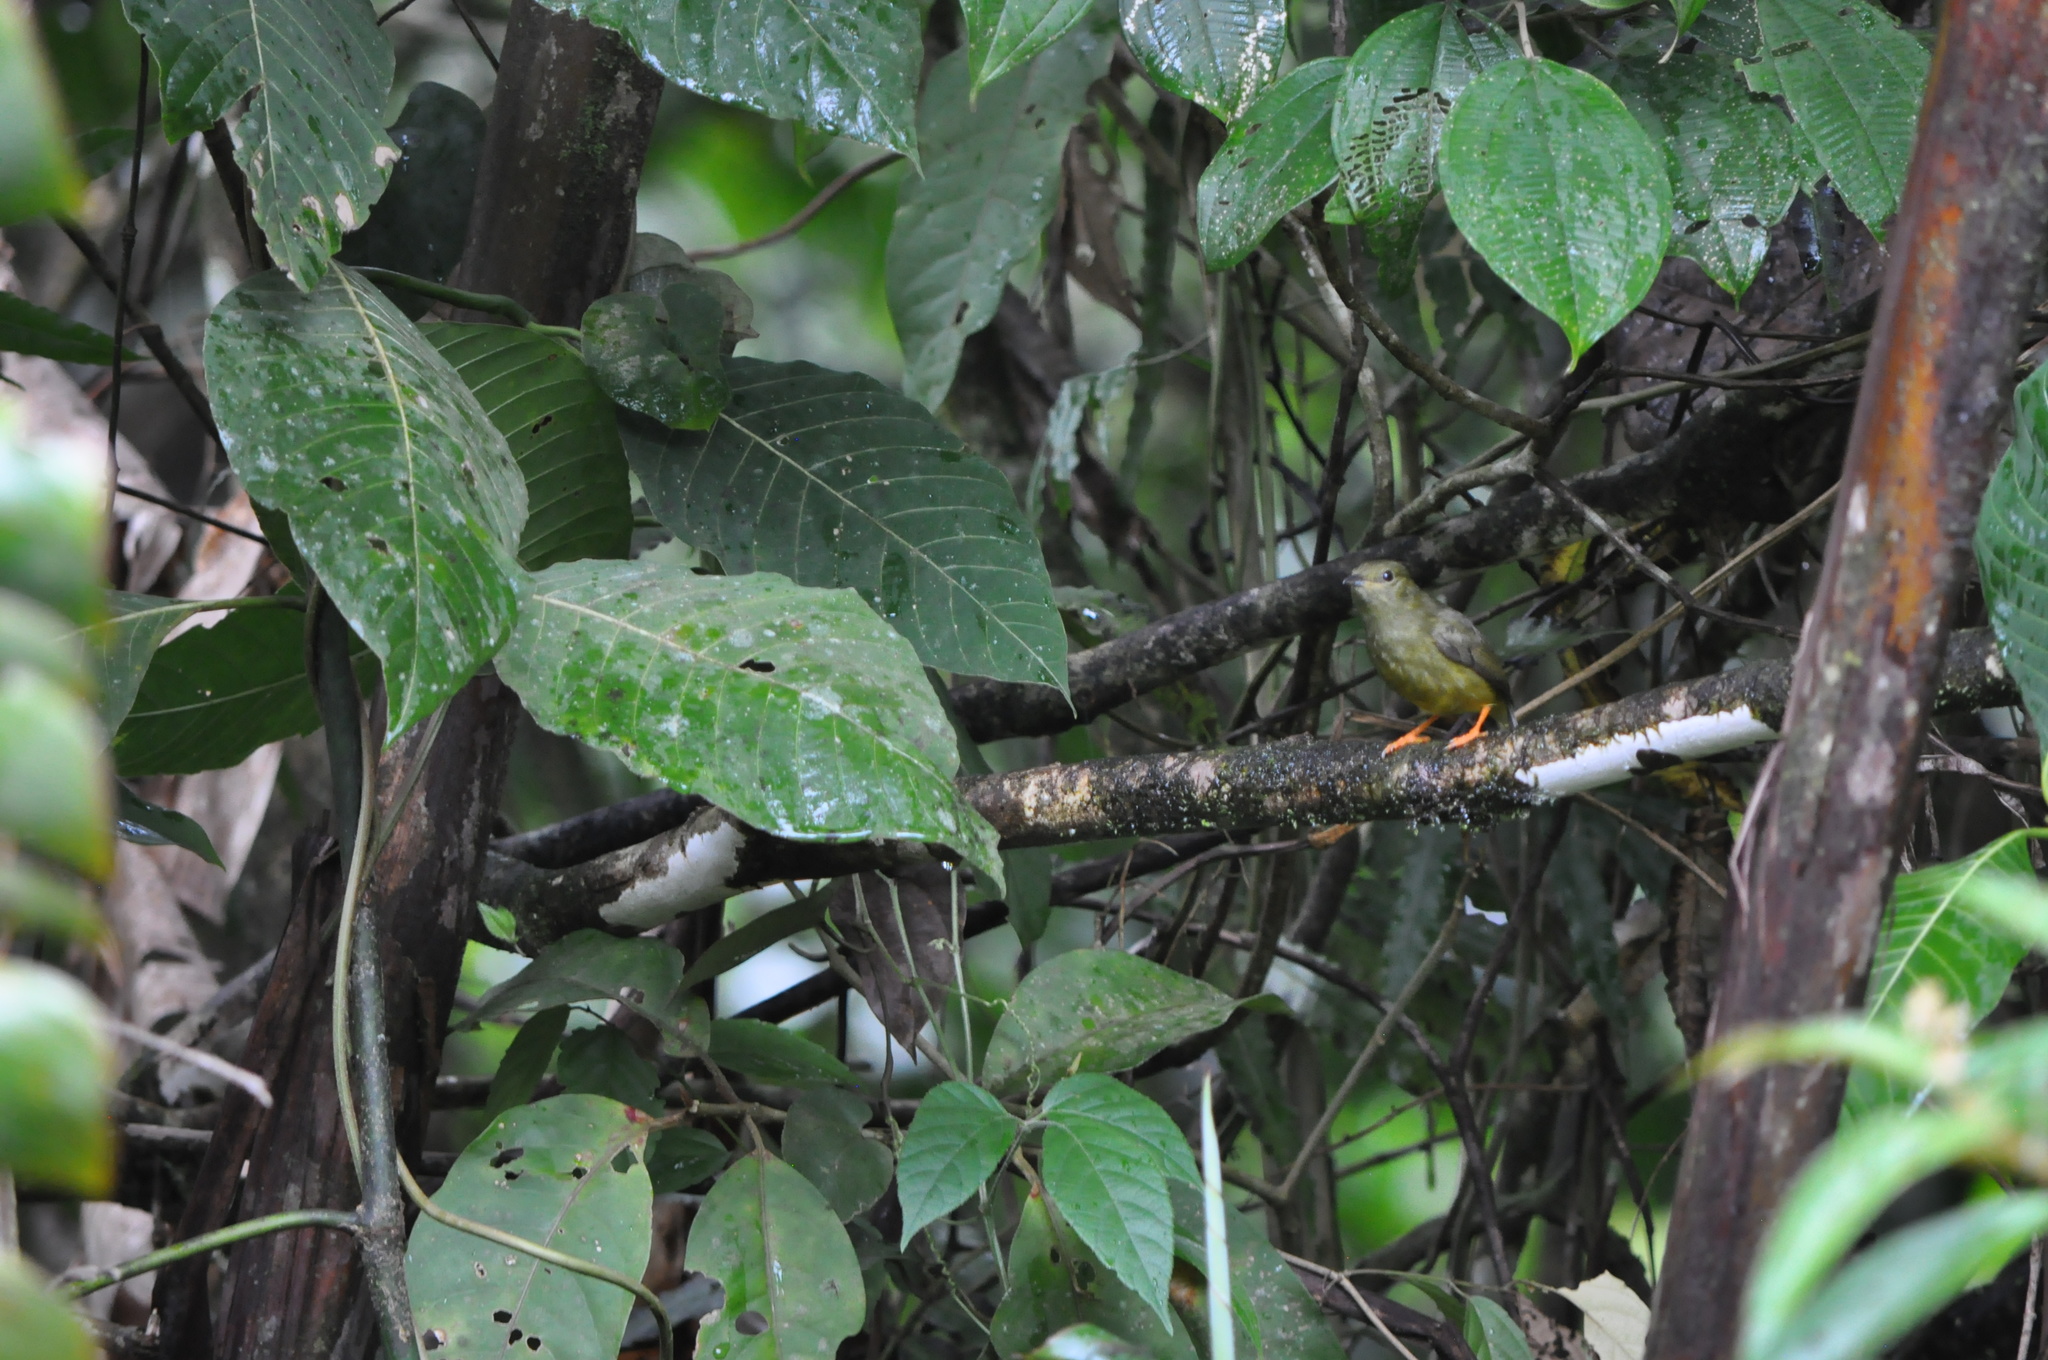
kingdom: Animalia
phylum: Chordata
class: Aves
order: Passeriformes
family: Pipridae
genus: Manacus
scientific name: Manacus candei
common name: White-collared manakin
